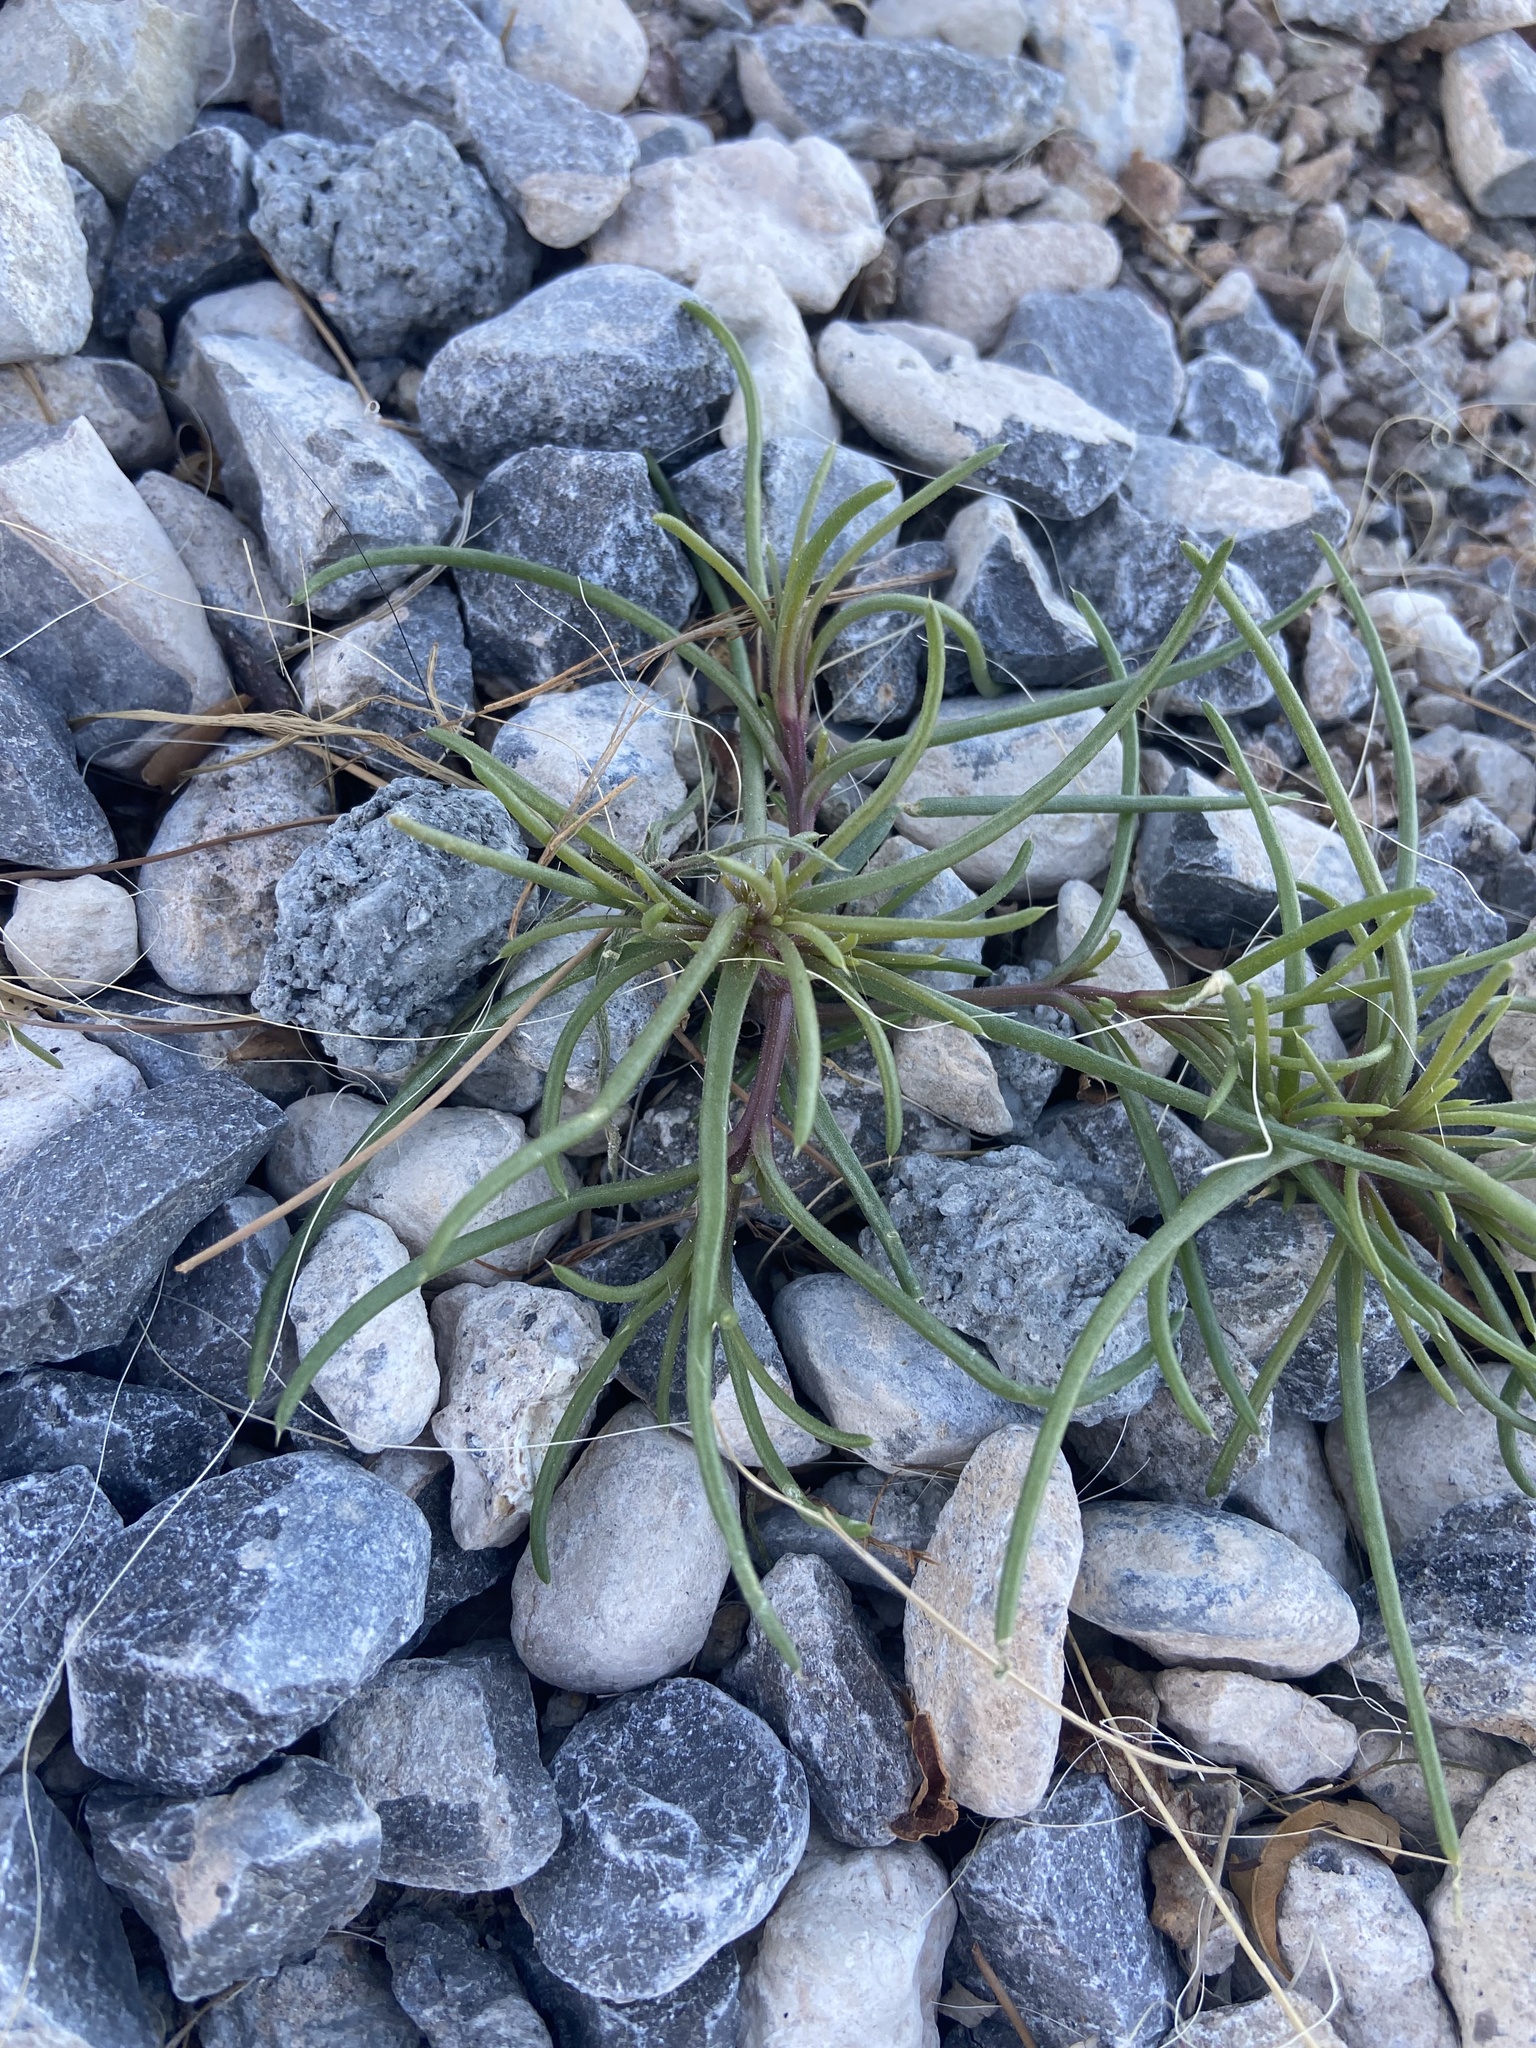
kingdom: Plantae
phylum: Tracheophyta
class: Magnoliopsida
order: Caryophyllales
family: Amaranthaceae
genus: Salsola
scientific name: Salsola tragus
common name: Prickly russian thistle
